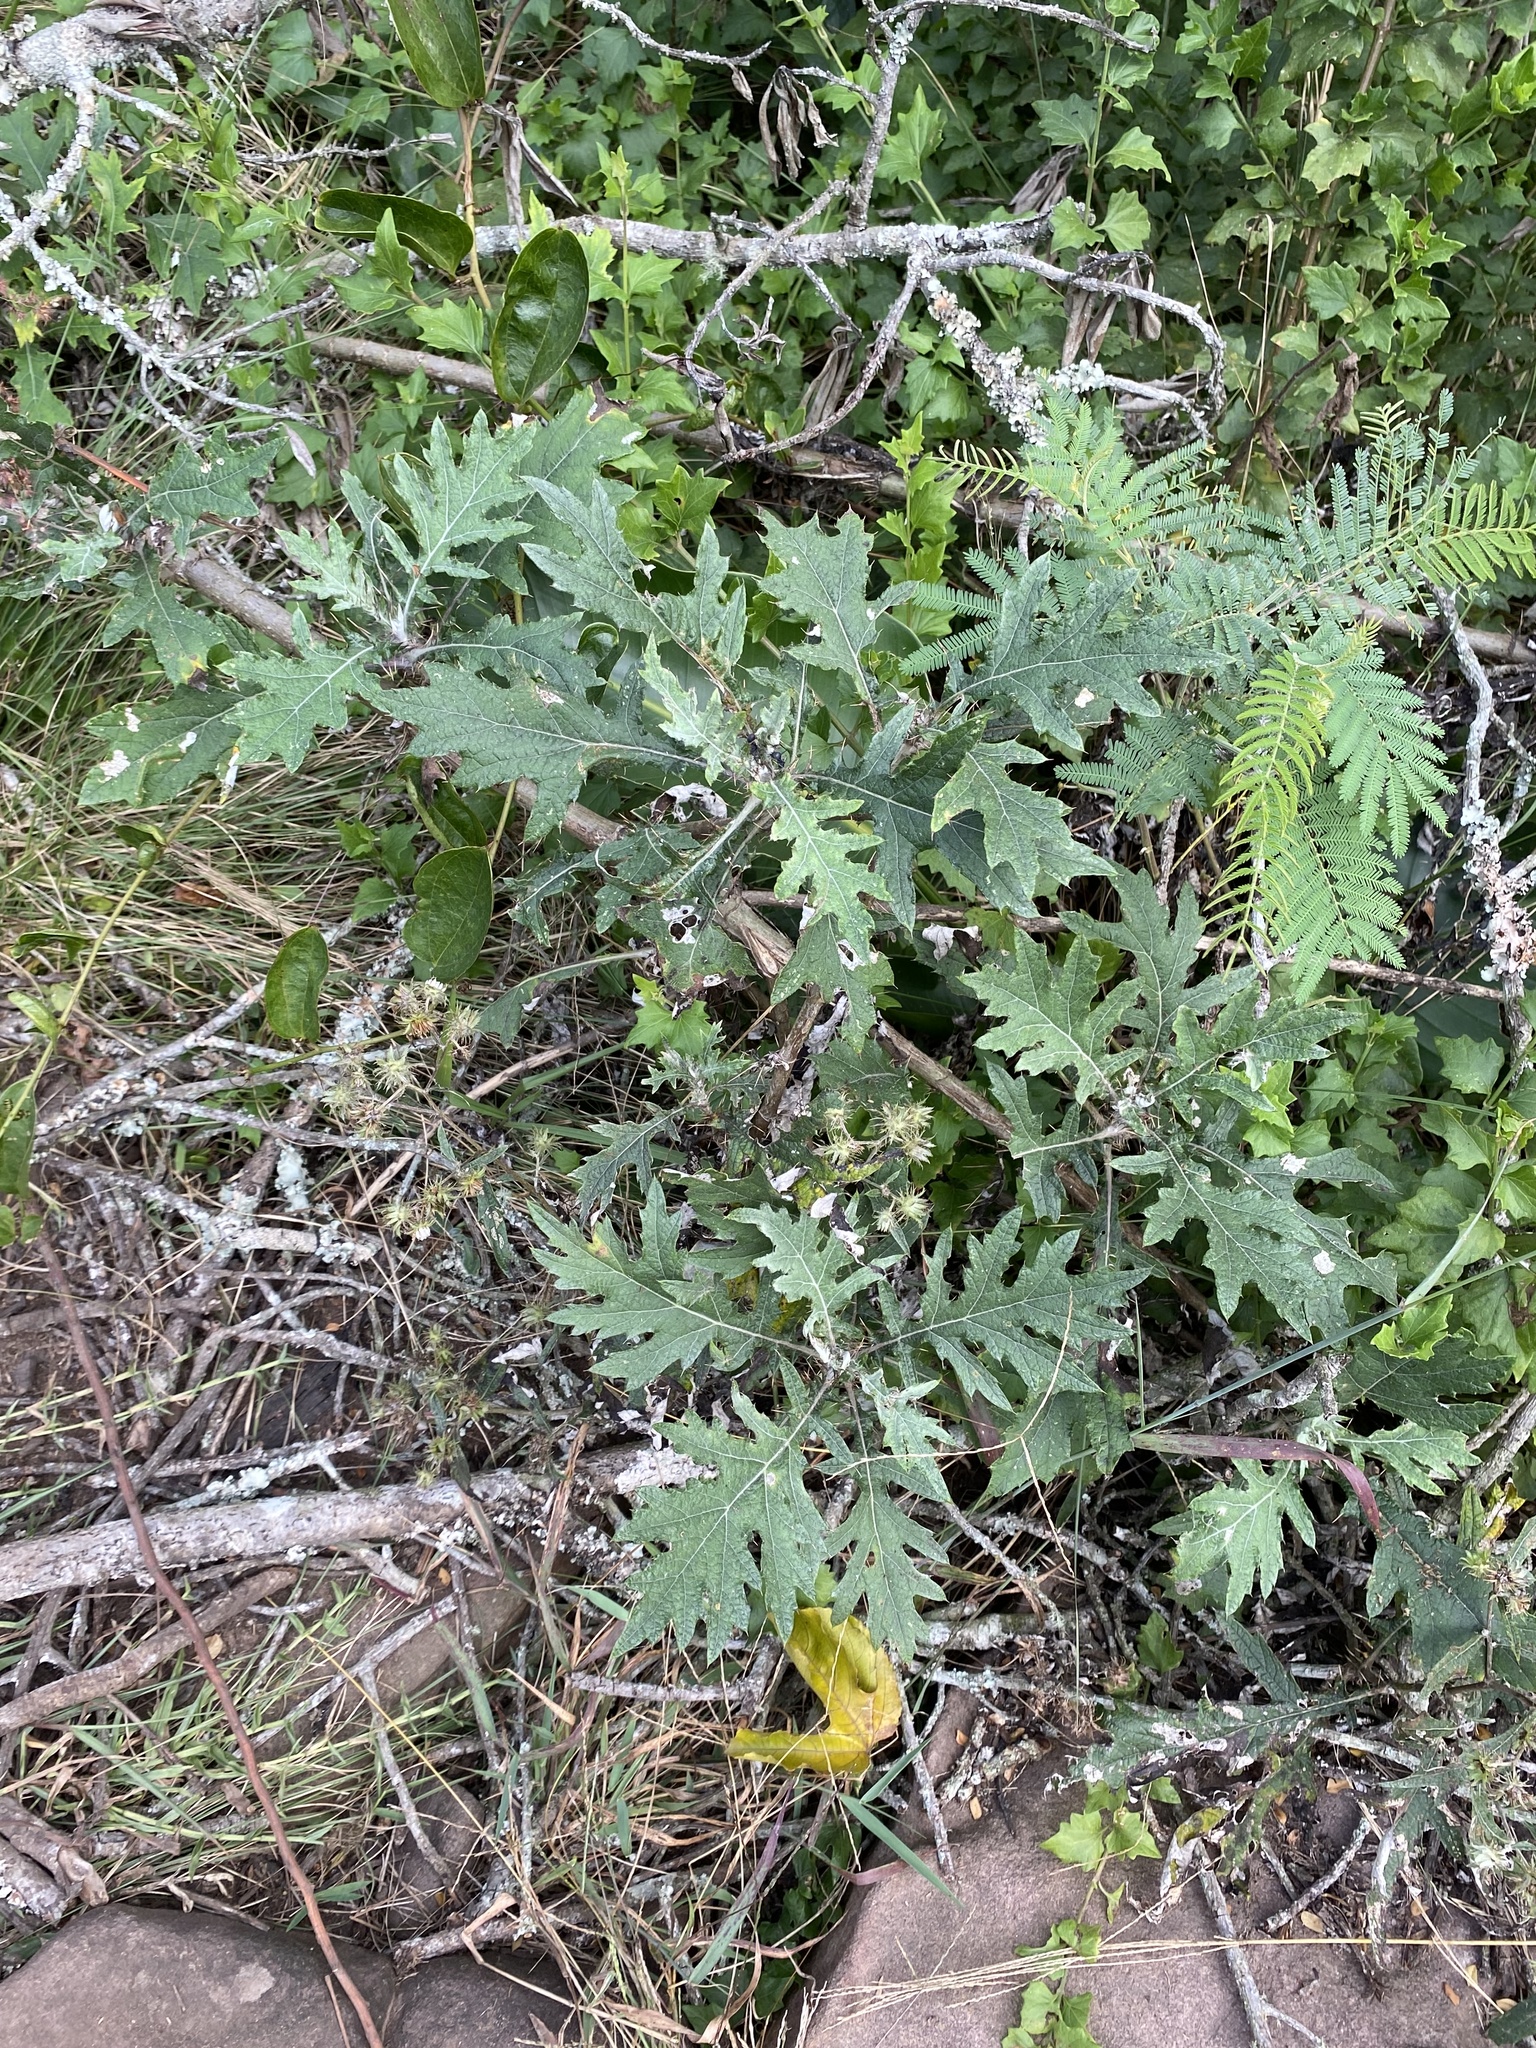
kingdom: Plantae
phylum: Tracheophyta
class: Magnoliopsida
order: Asterales
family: Asteraceae
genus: Berkheya
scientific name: Berkheya bipinnatifida
